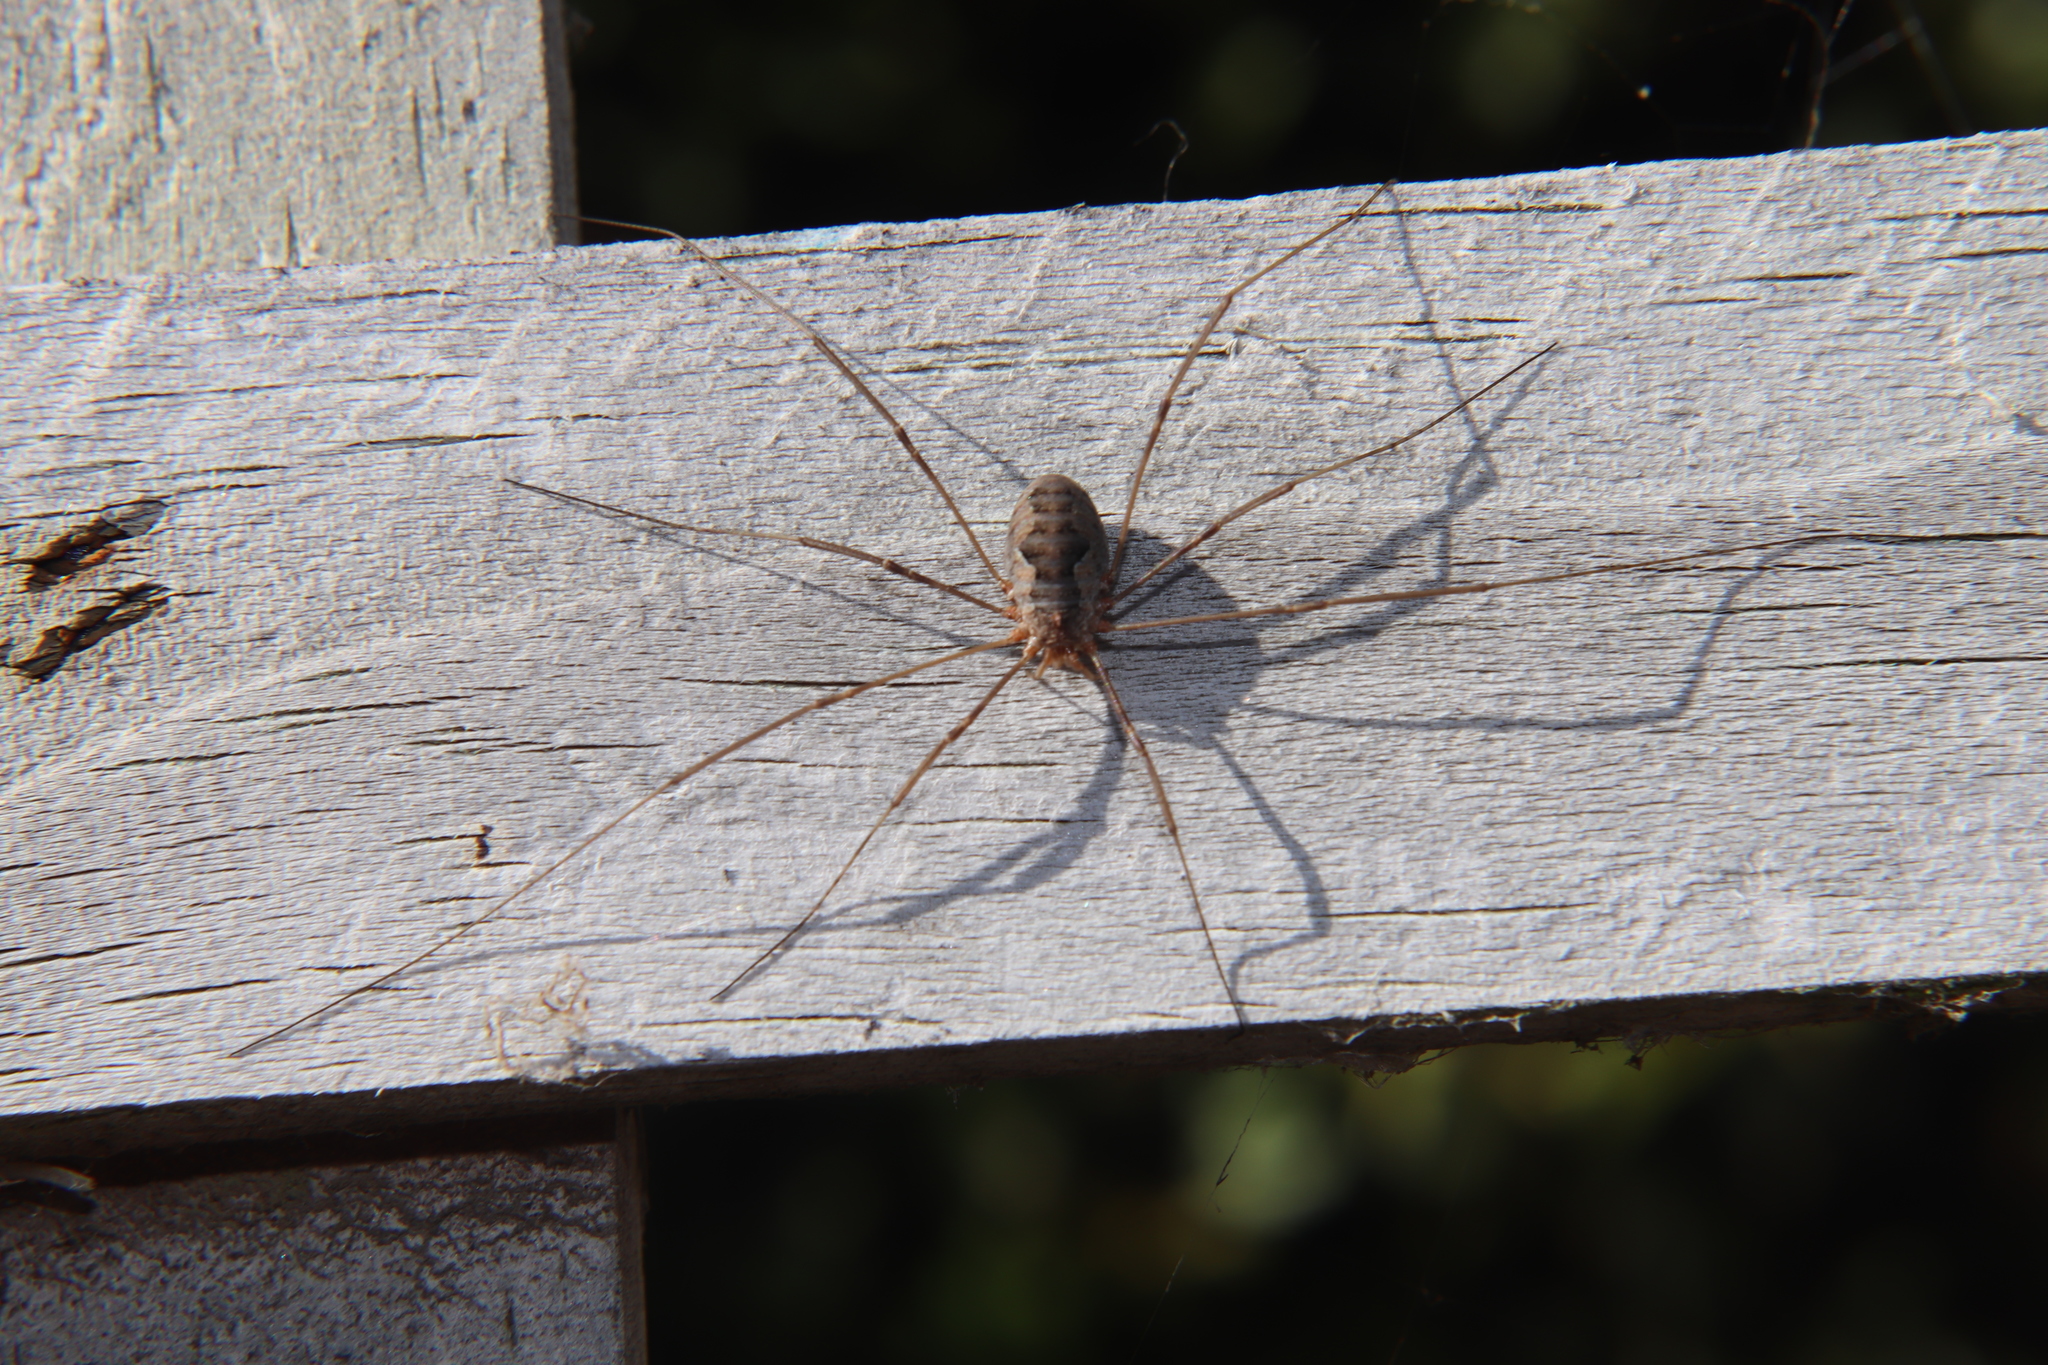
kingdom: Animalia
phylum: Arthropoda
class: Arachnida
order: Opiliones
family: Phalangiidae
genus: Phalangium
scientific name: Phalangium opilio
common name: Daddy longleg
